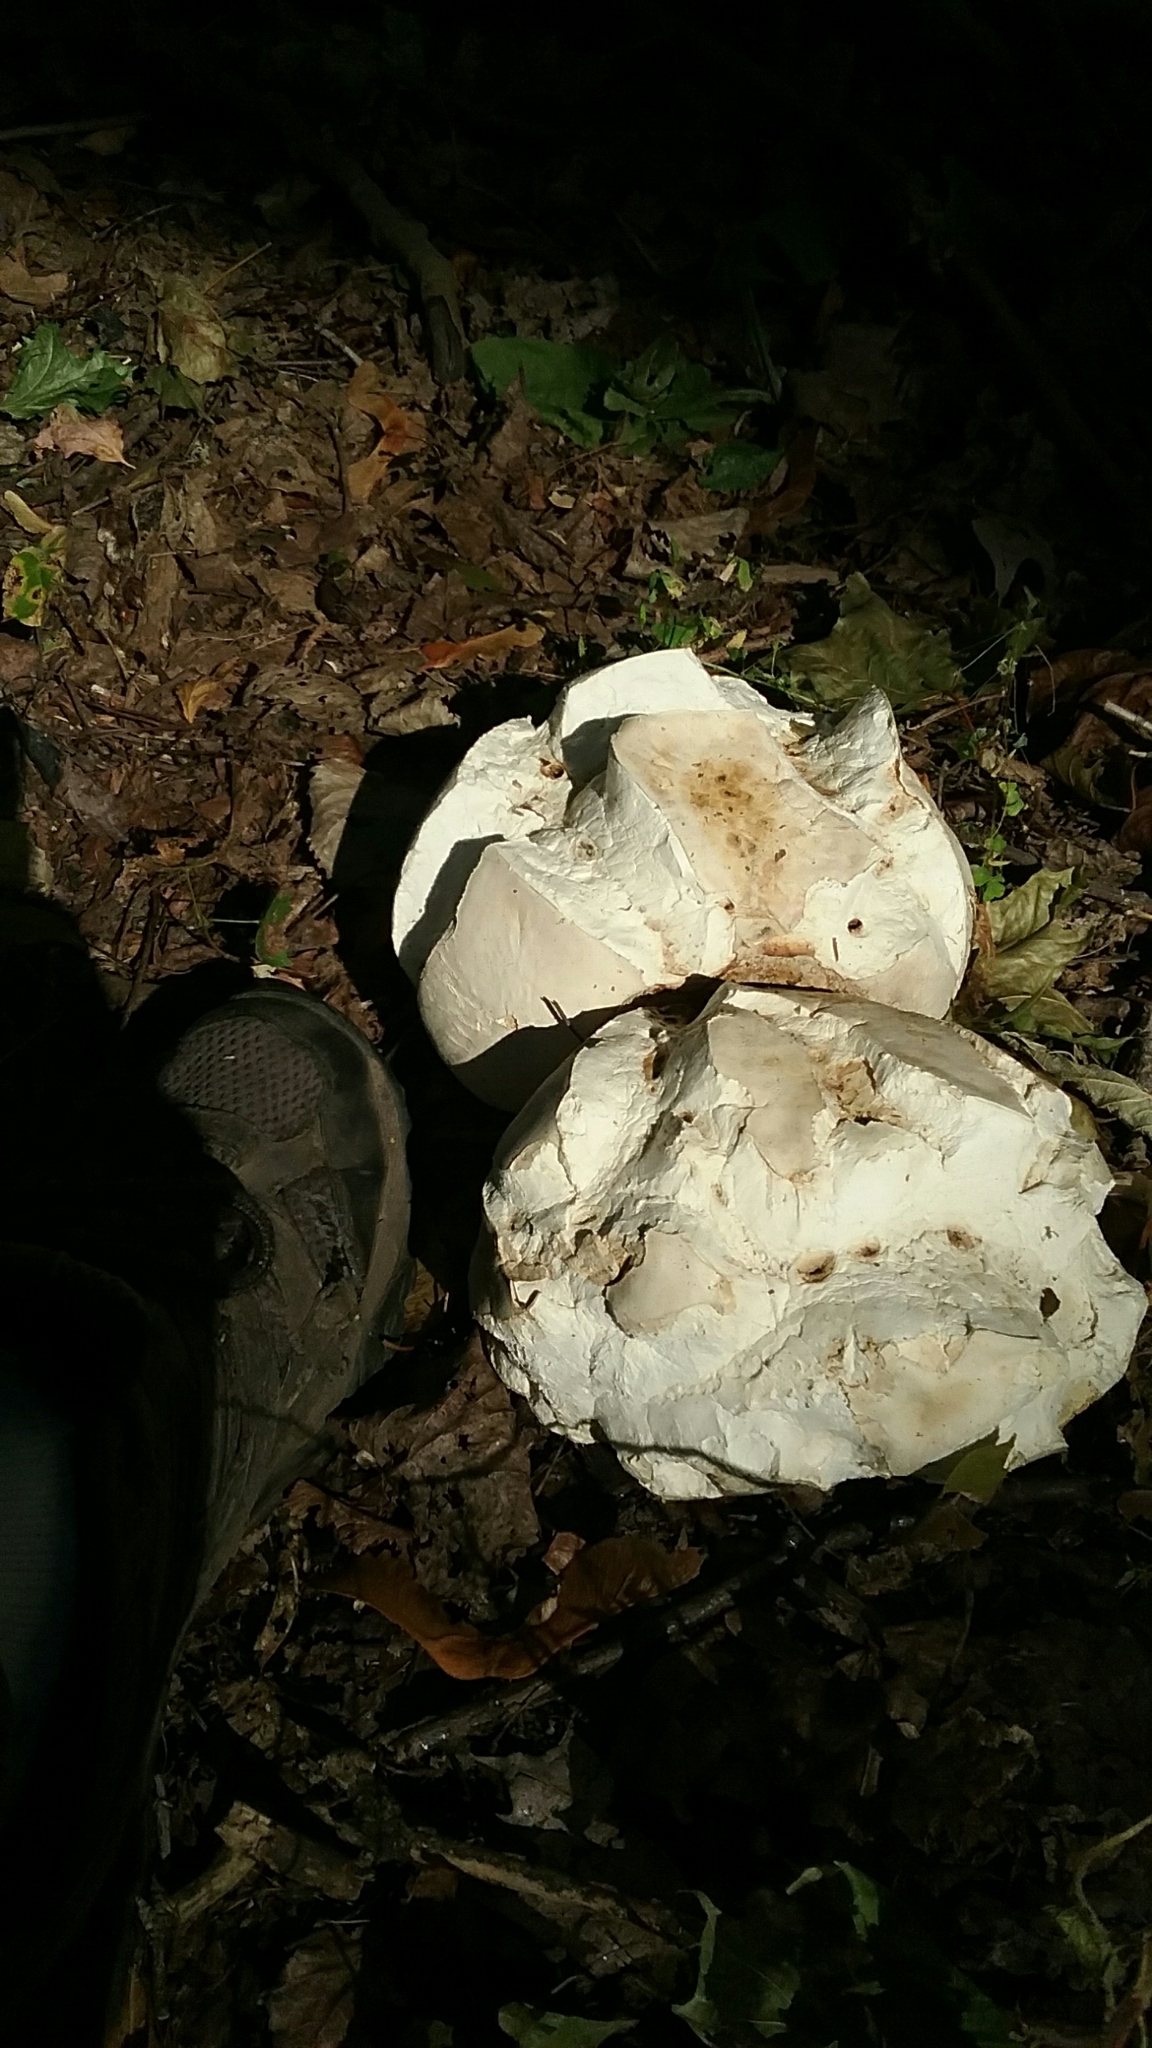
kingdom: Fungi
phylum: Basidiomycota
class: Agaricomycetes
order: Agaricales
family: Lycoperdaceae
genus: Calvatia
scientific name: Calvatia gigantea
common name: Giant puffball
